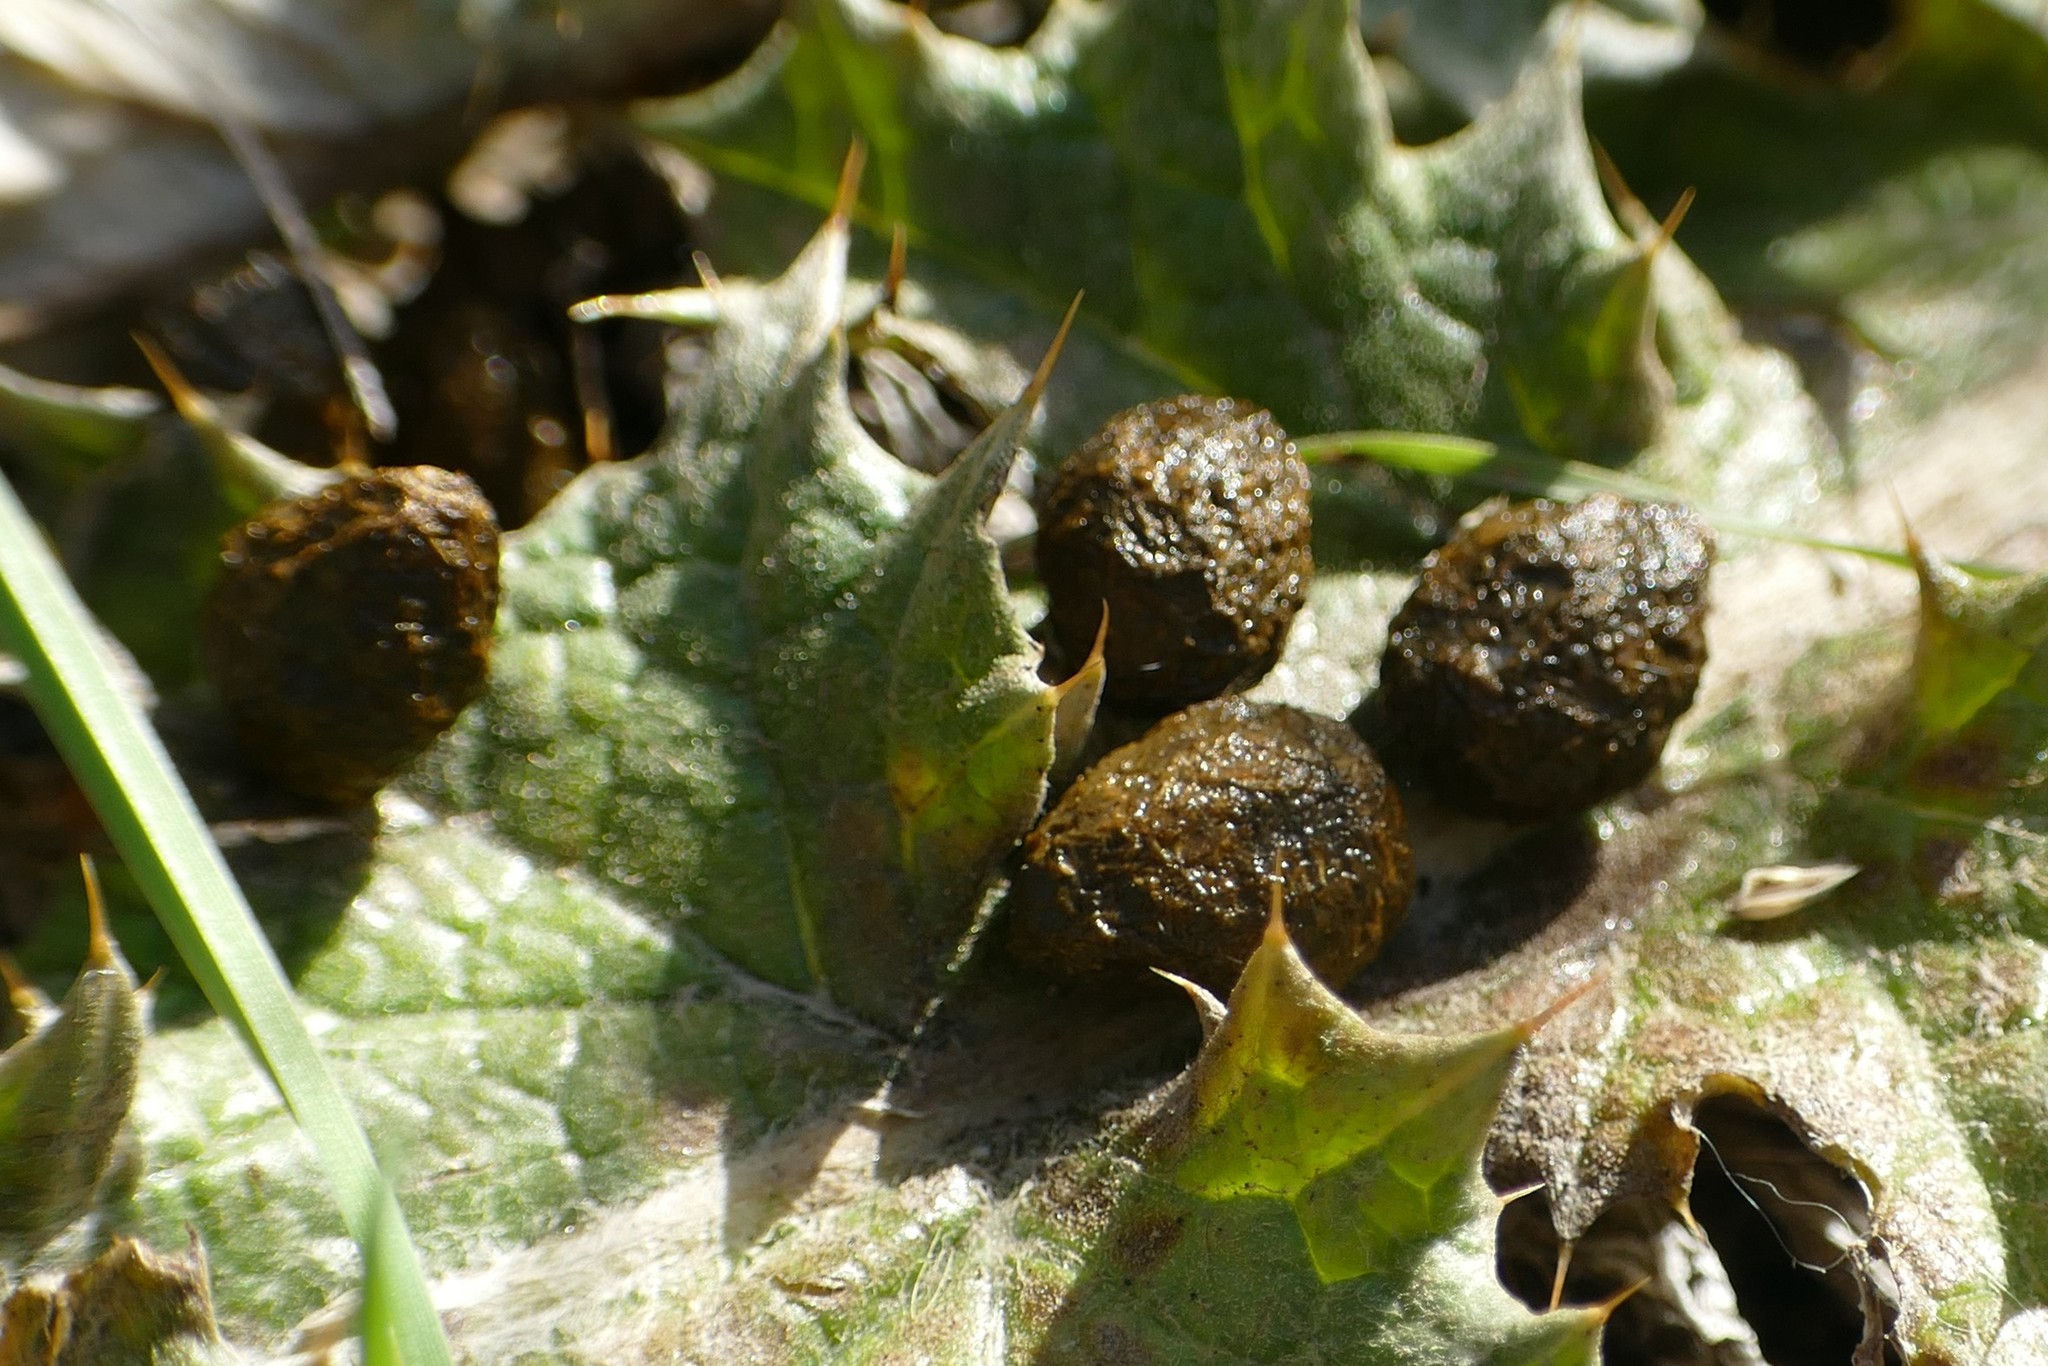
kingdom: Animalia
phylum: Chordata
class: Mammalia
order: Lagomorpha
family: Leporidae
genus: Oryctolagus
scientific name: Oryctolagus cuniculus
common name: European rabbit
